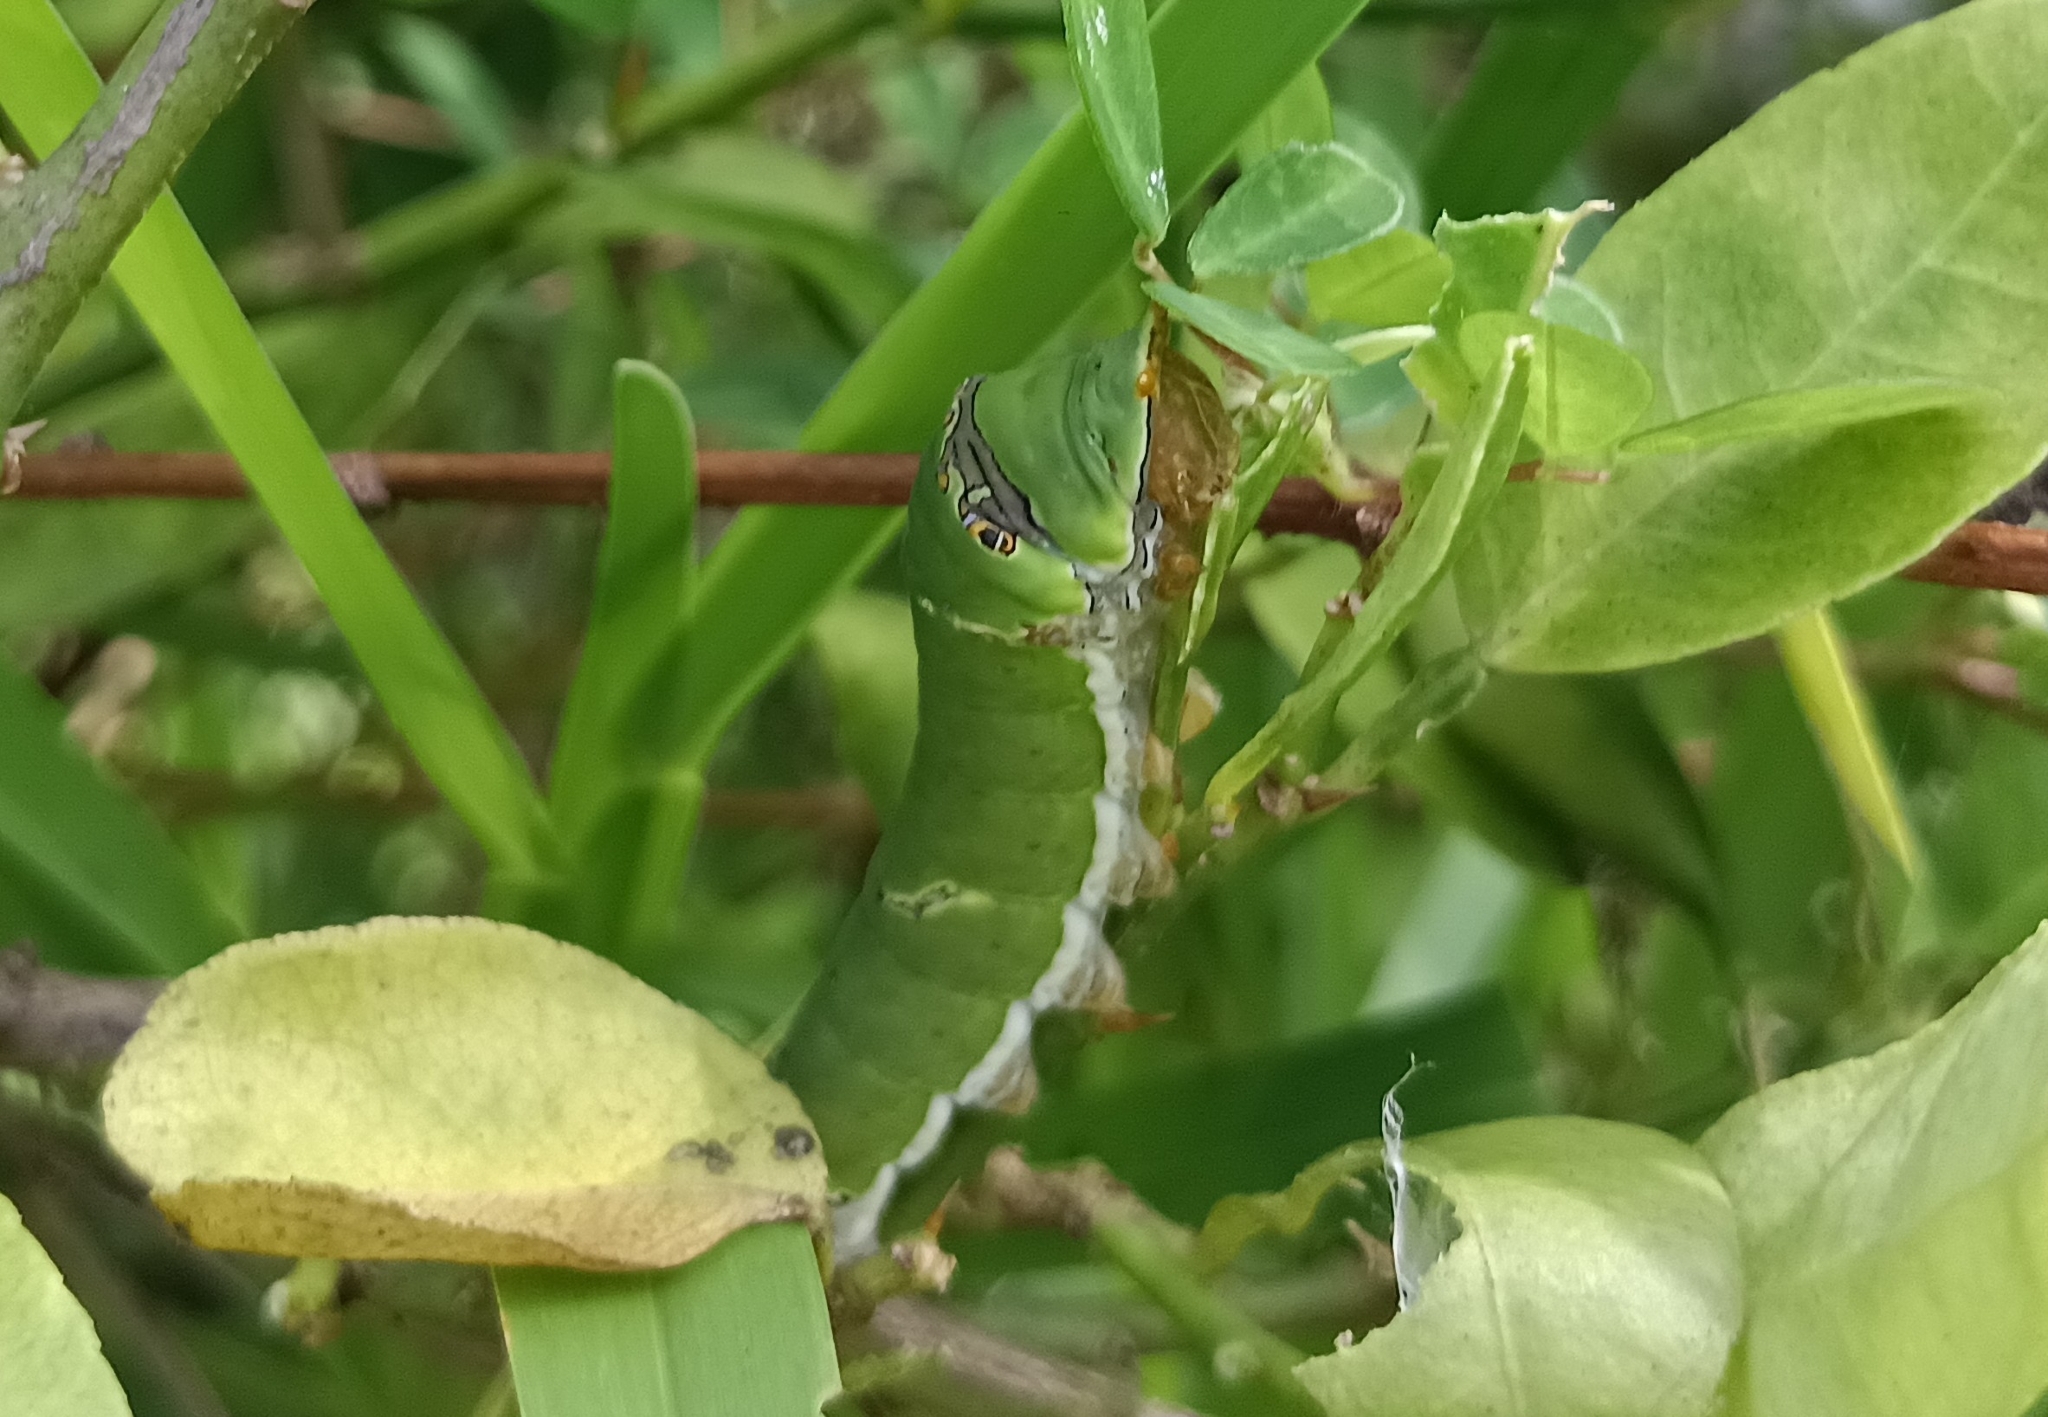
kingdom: Animalia
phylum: Arthropoda
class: Insecta
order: Lepidoptera
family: Papilionidae
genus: Papilio
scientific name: Papilio demoleus
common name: Lime butterfly
